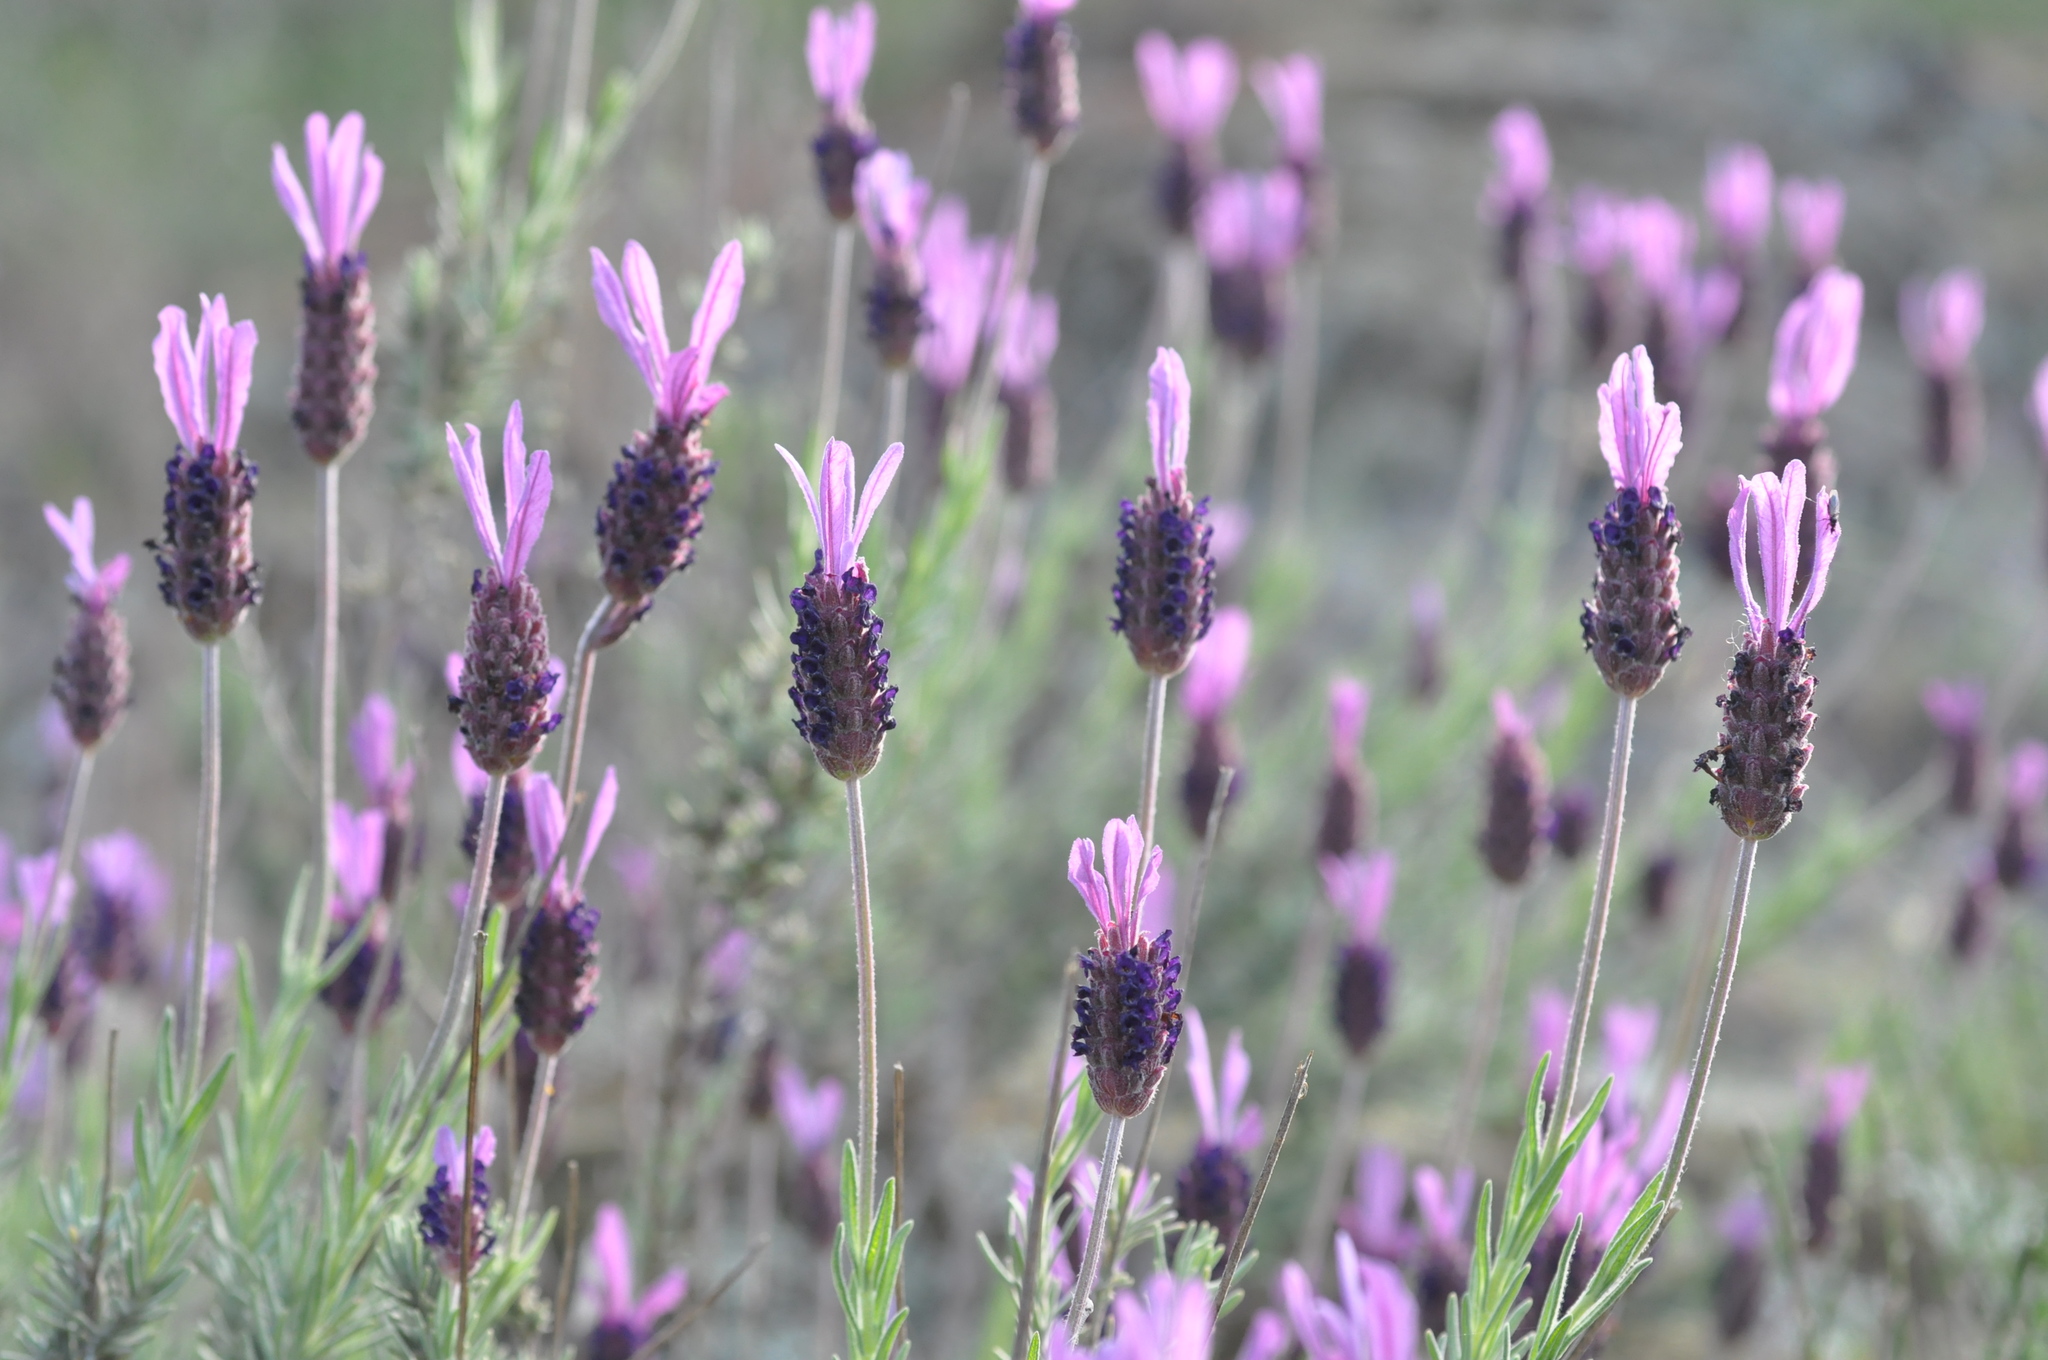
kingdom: Plantae
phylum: Tracheophyta
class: Magnoliopsida
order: Lamiales
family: Lamiaceae
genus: Lavandula
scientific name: Lavandula pedunculata
